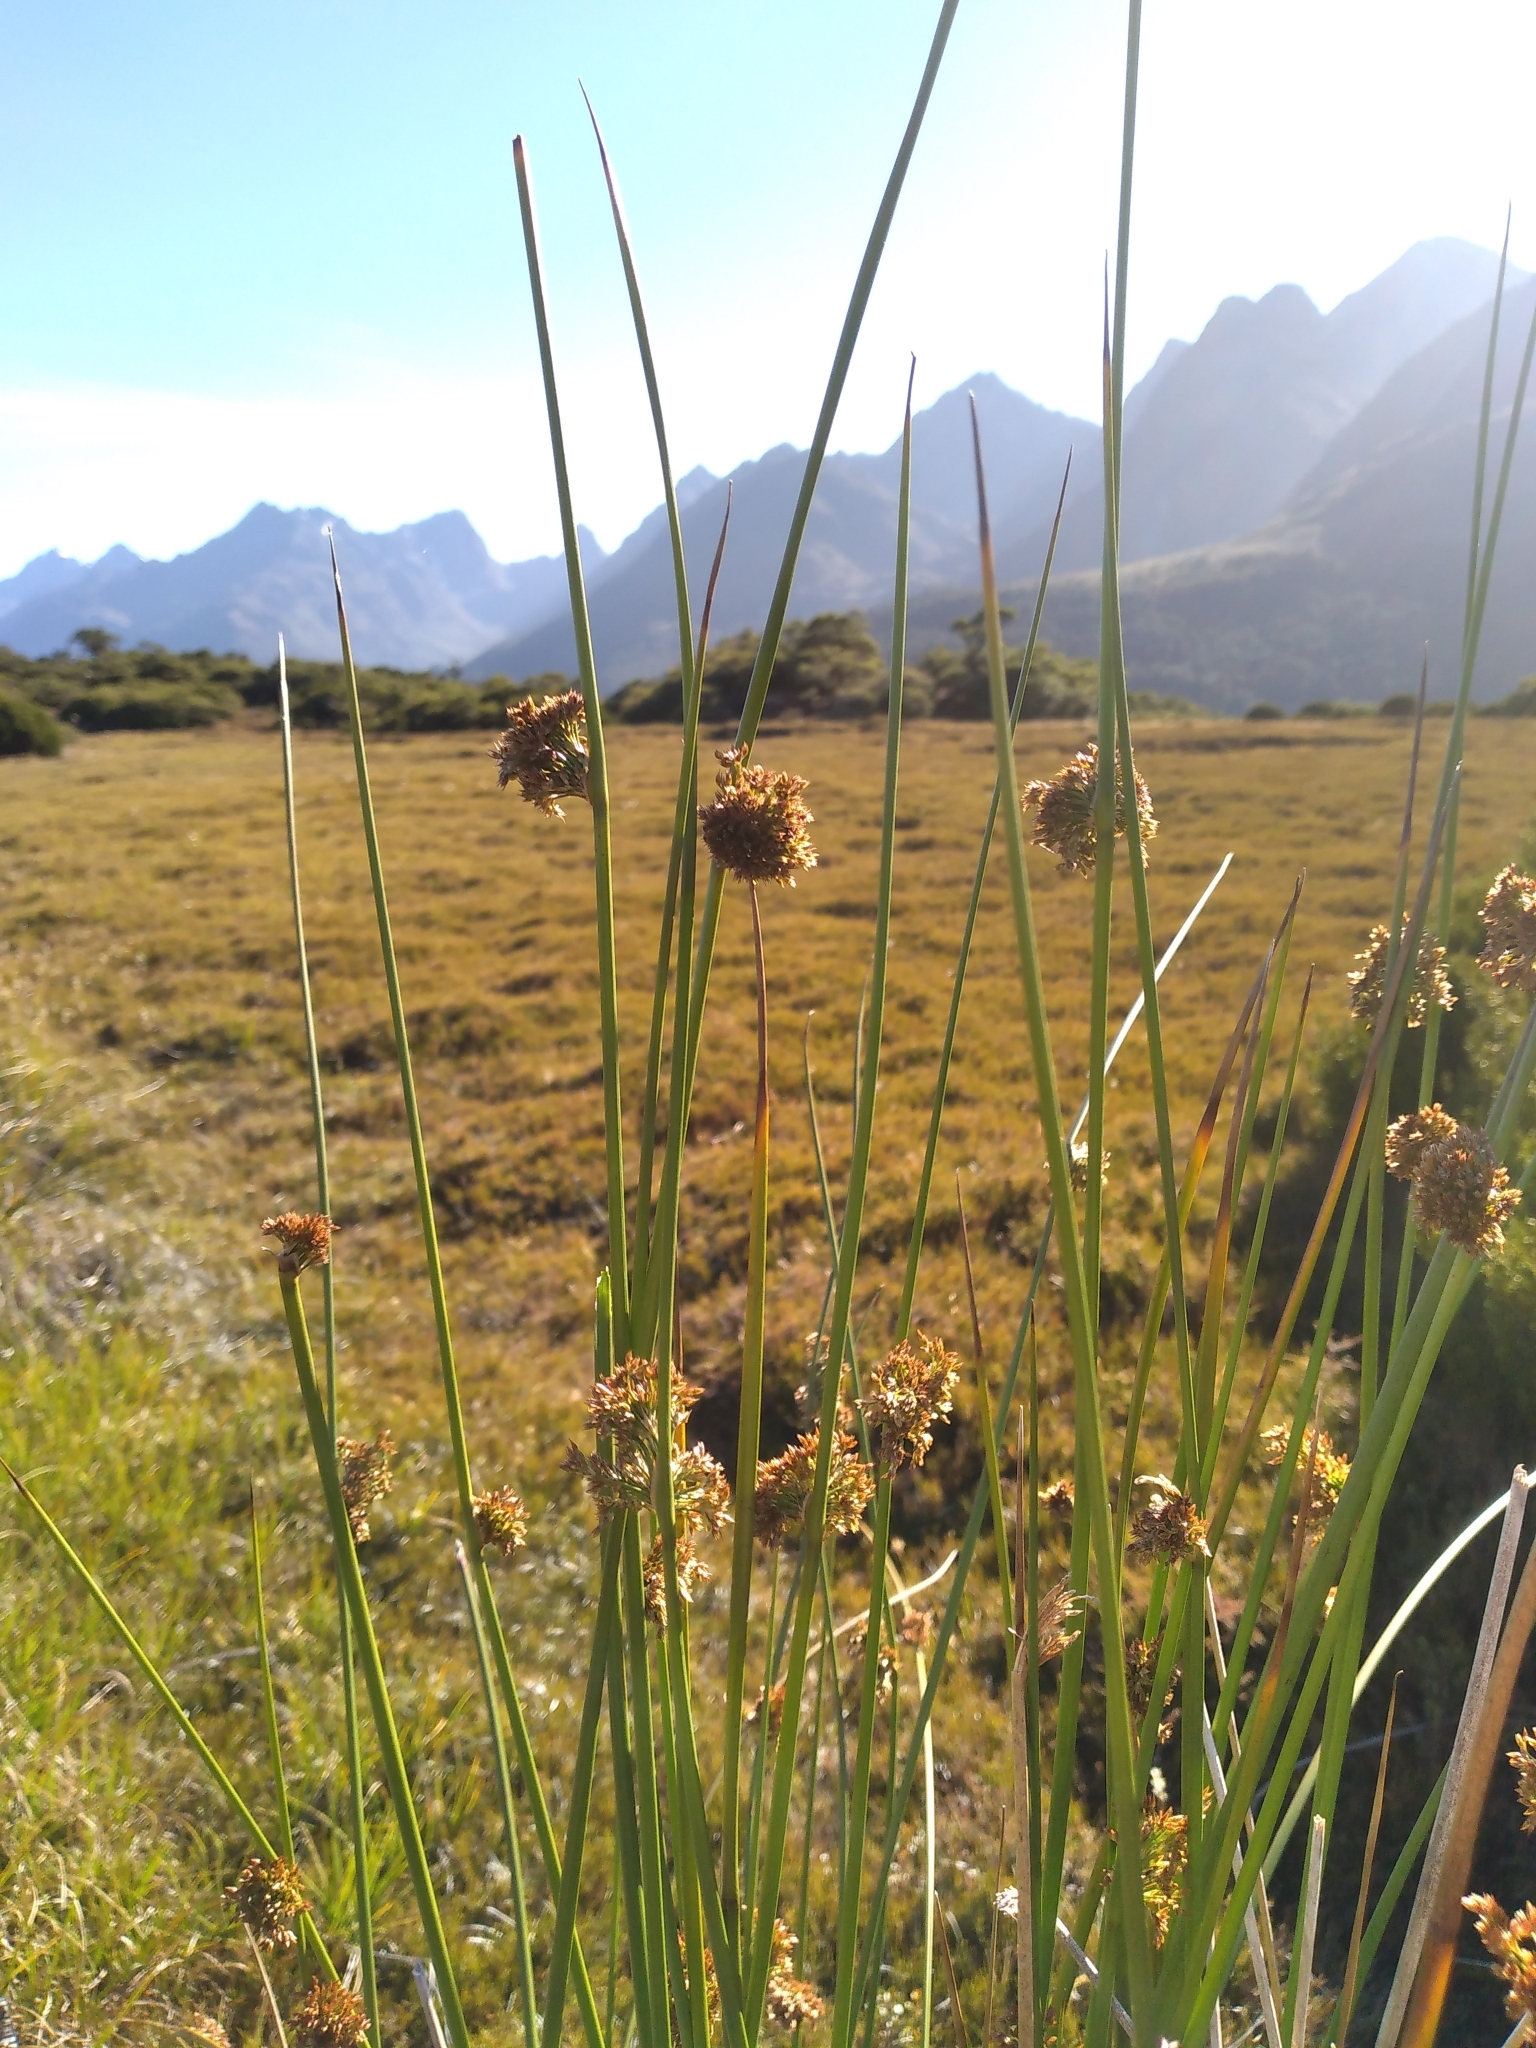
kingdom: Plantae
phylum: Tracheophyta
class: Liliopsida
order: Poales
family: Juncaceae
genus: Juncus
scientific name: Juncus effusus
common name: Soft rush
